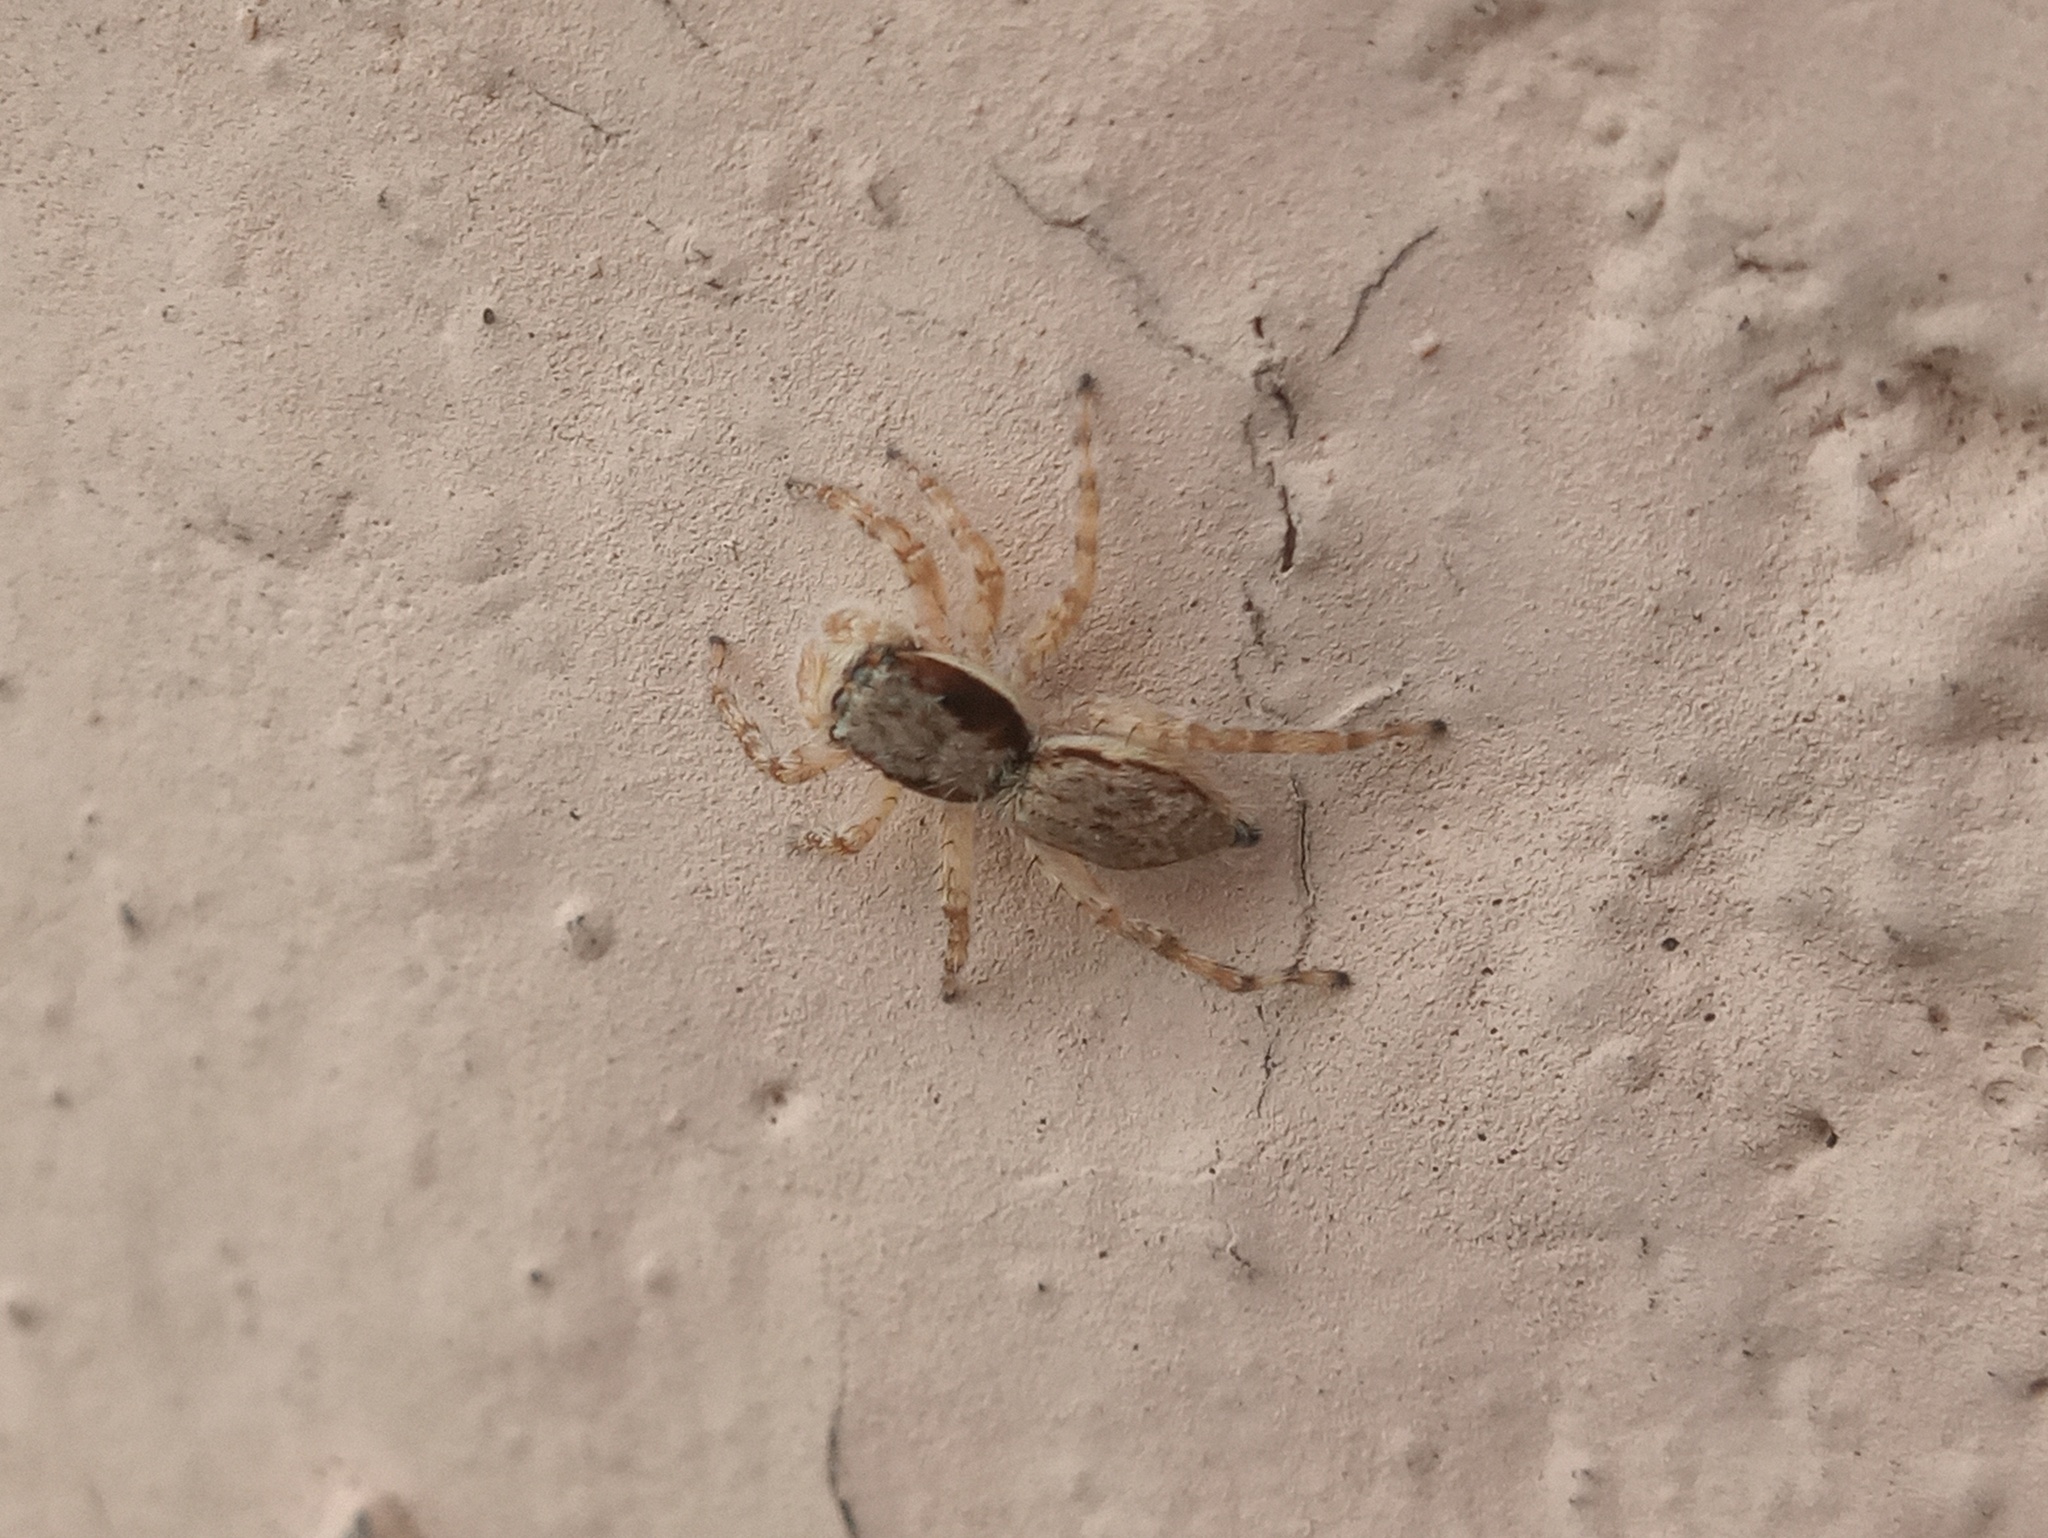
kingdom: Animalia
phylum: Arthropoda
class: Arachnida
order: Araneae
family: Salticidae
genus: Menemerus
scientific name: Menemerus bivittatus
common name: Gray wall jumper
